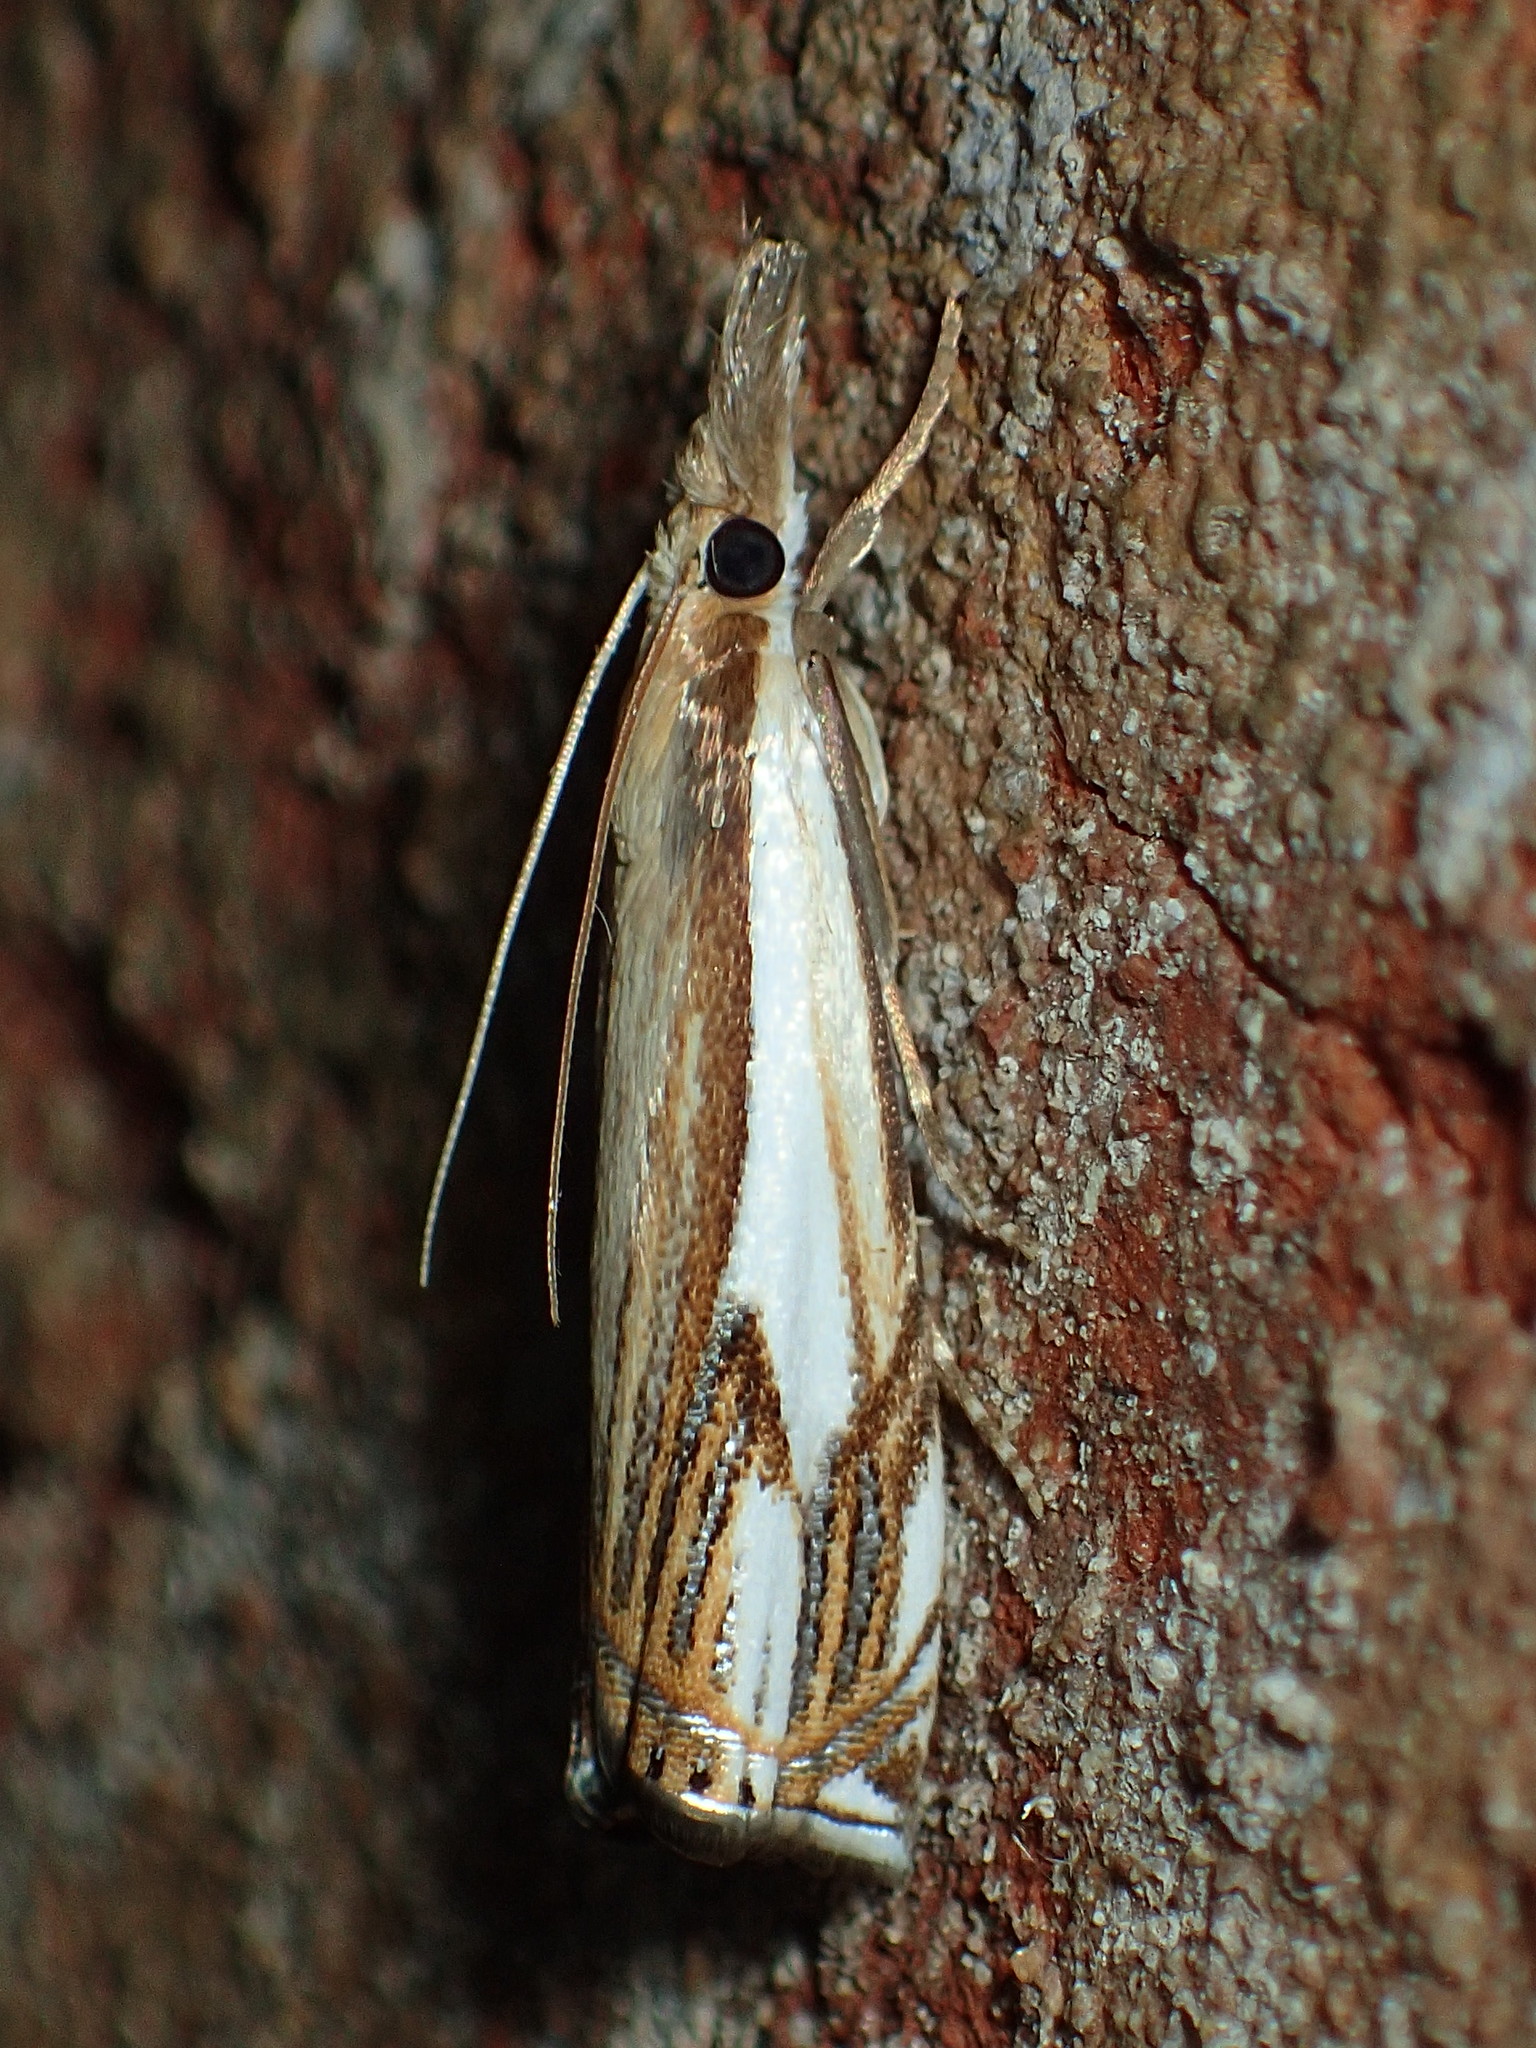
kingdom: Animalia
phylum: Arthropoda
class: Insecta
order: Lepidoptera
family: Crambidae
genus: Crambus
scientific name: Crambus agitatellus
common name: Double-banded grass-veneer
